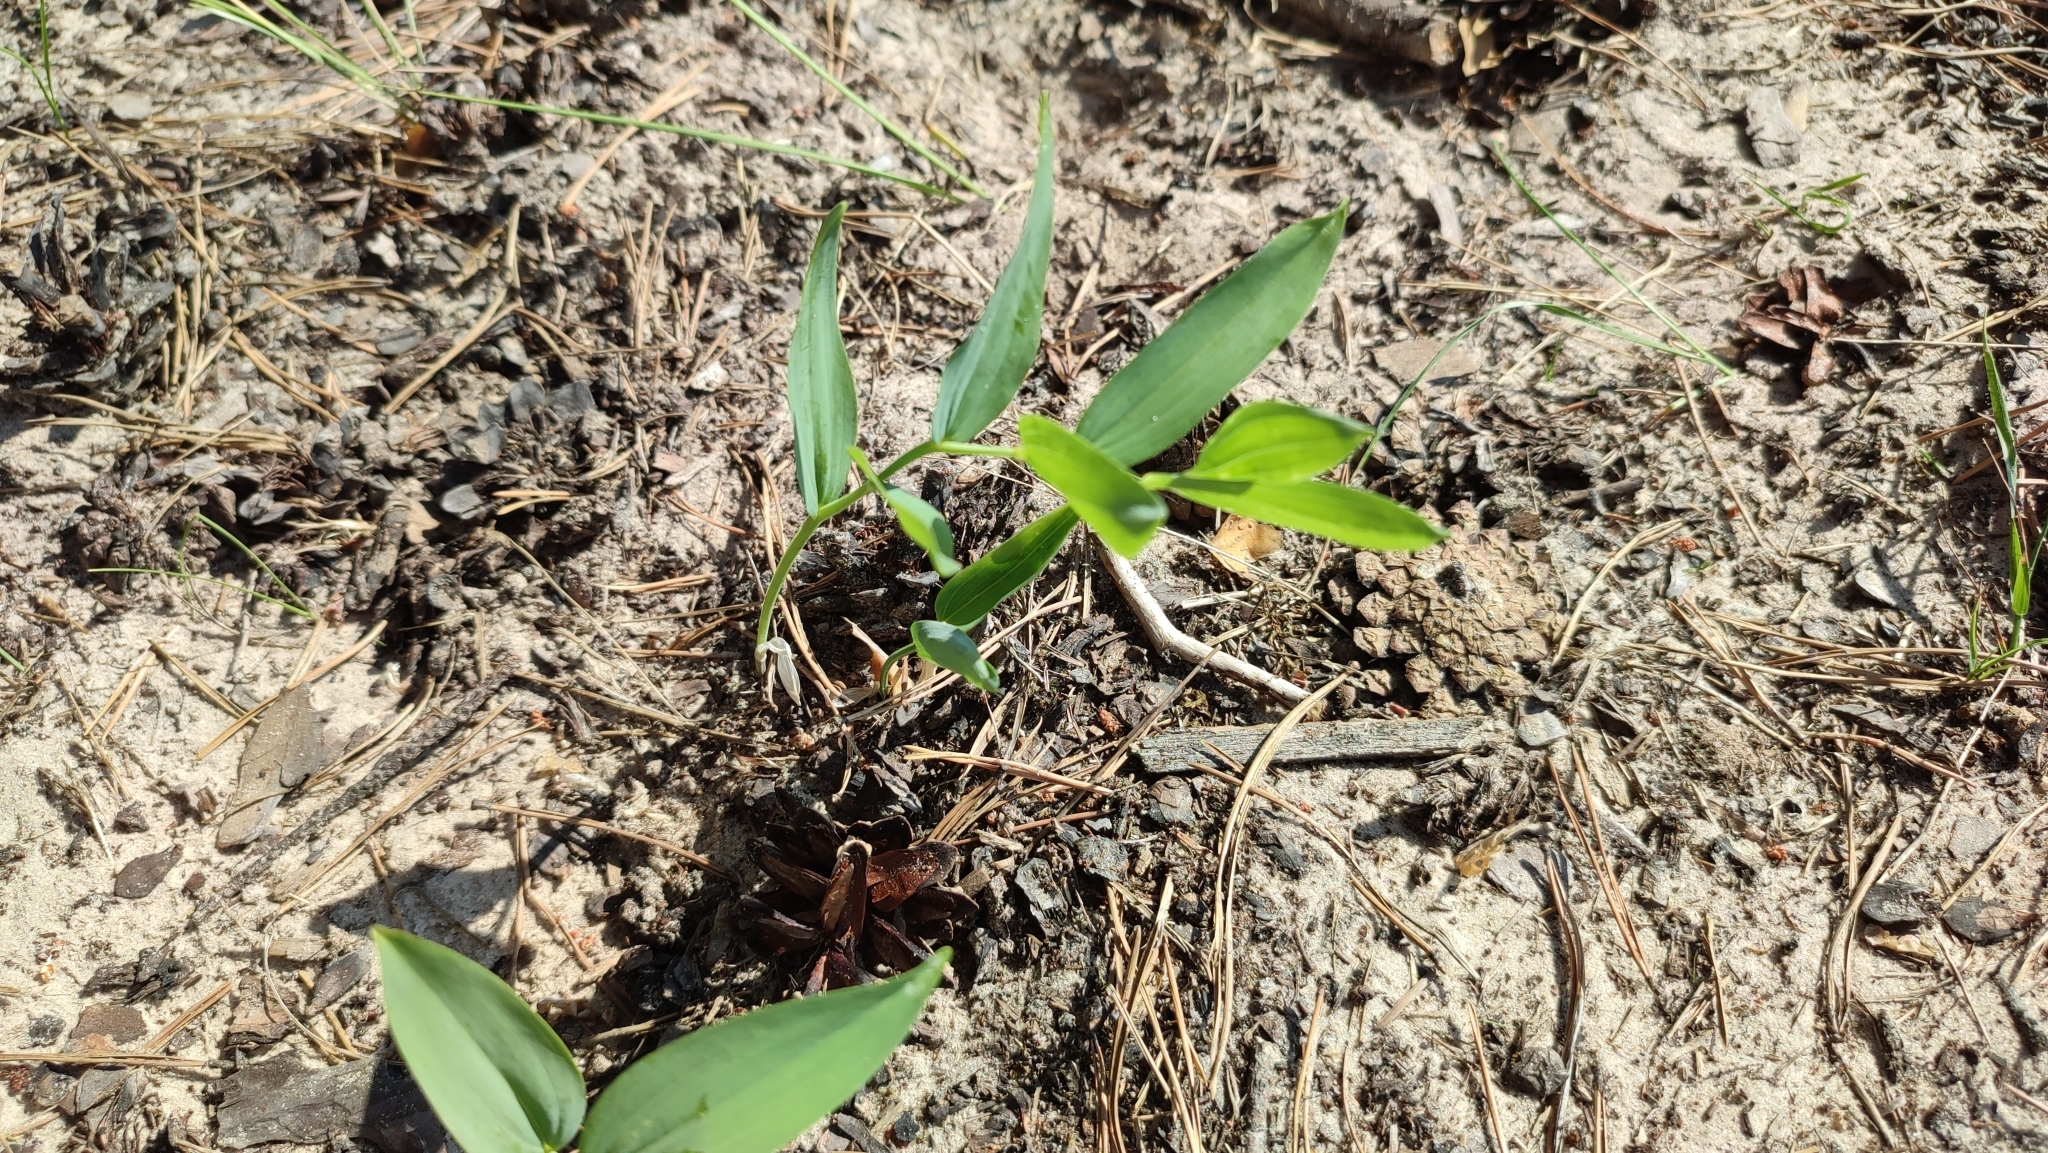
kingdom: Plantae
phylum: Tracheophyta
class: Liliopsida
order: Asparagales
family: Asparagaceae
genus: Polygonatum
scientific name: Polygonatum odoratum
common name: Angular solomon's-seal
